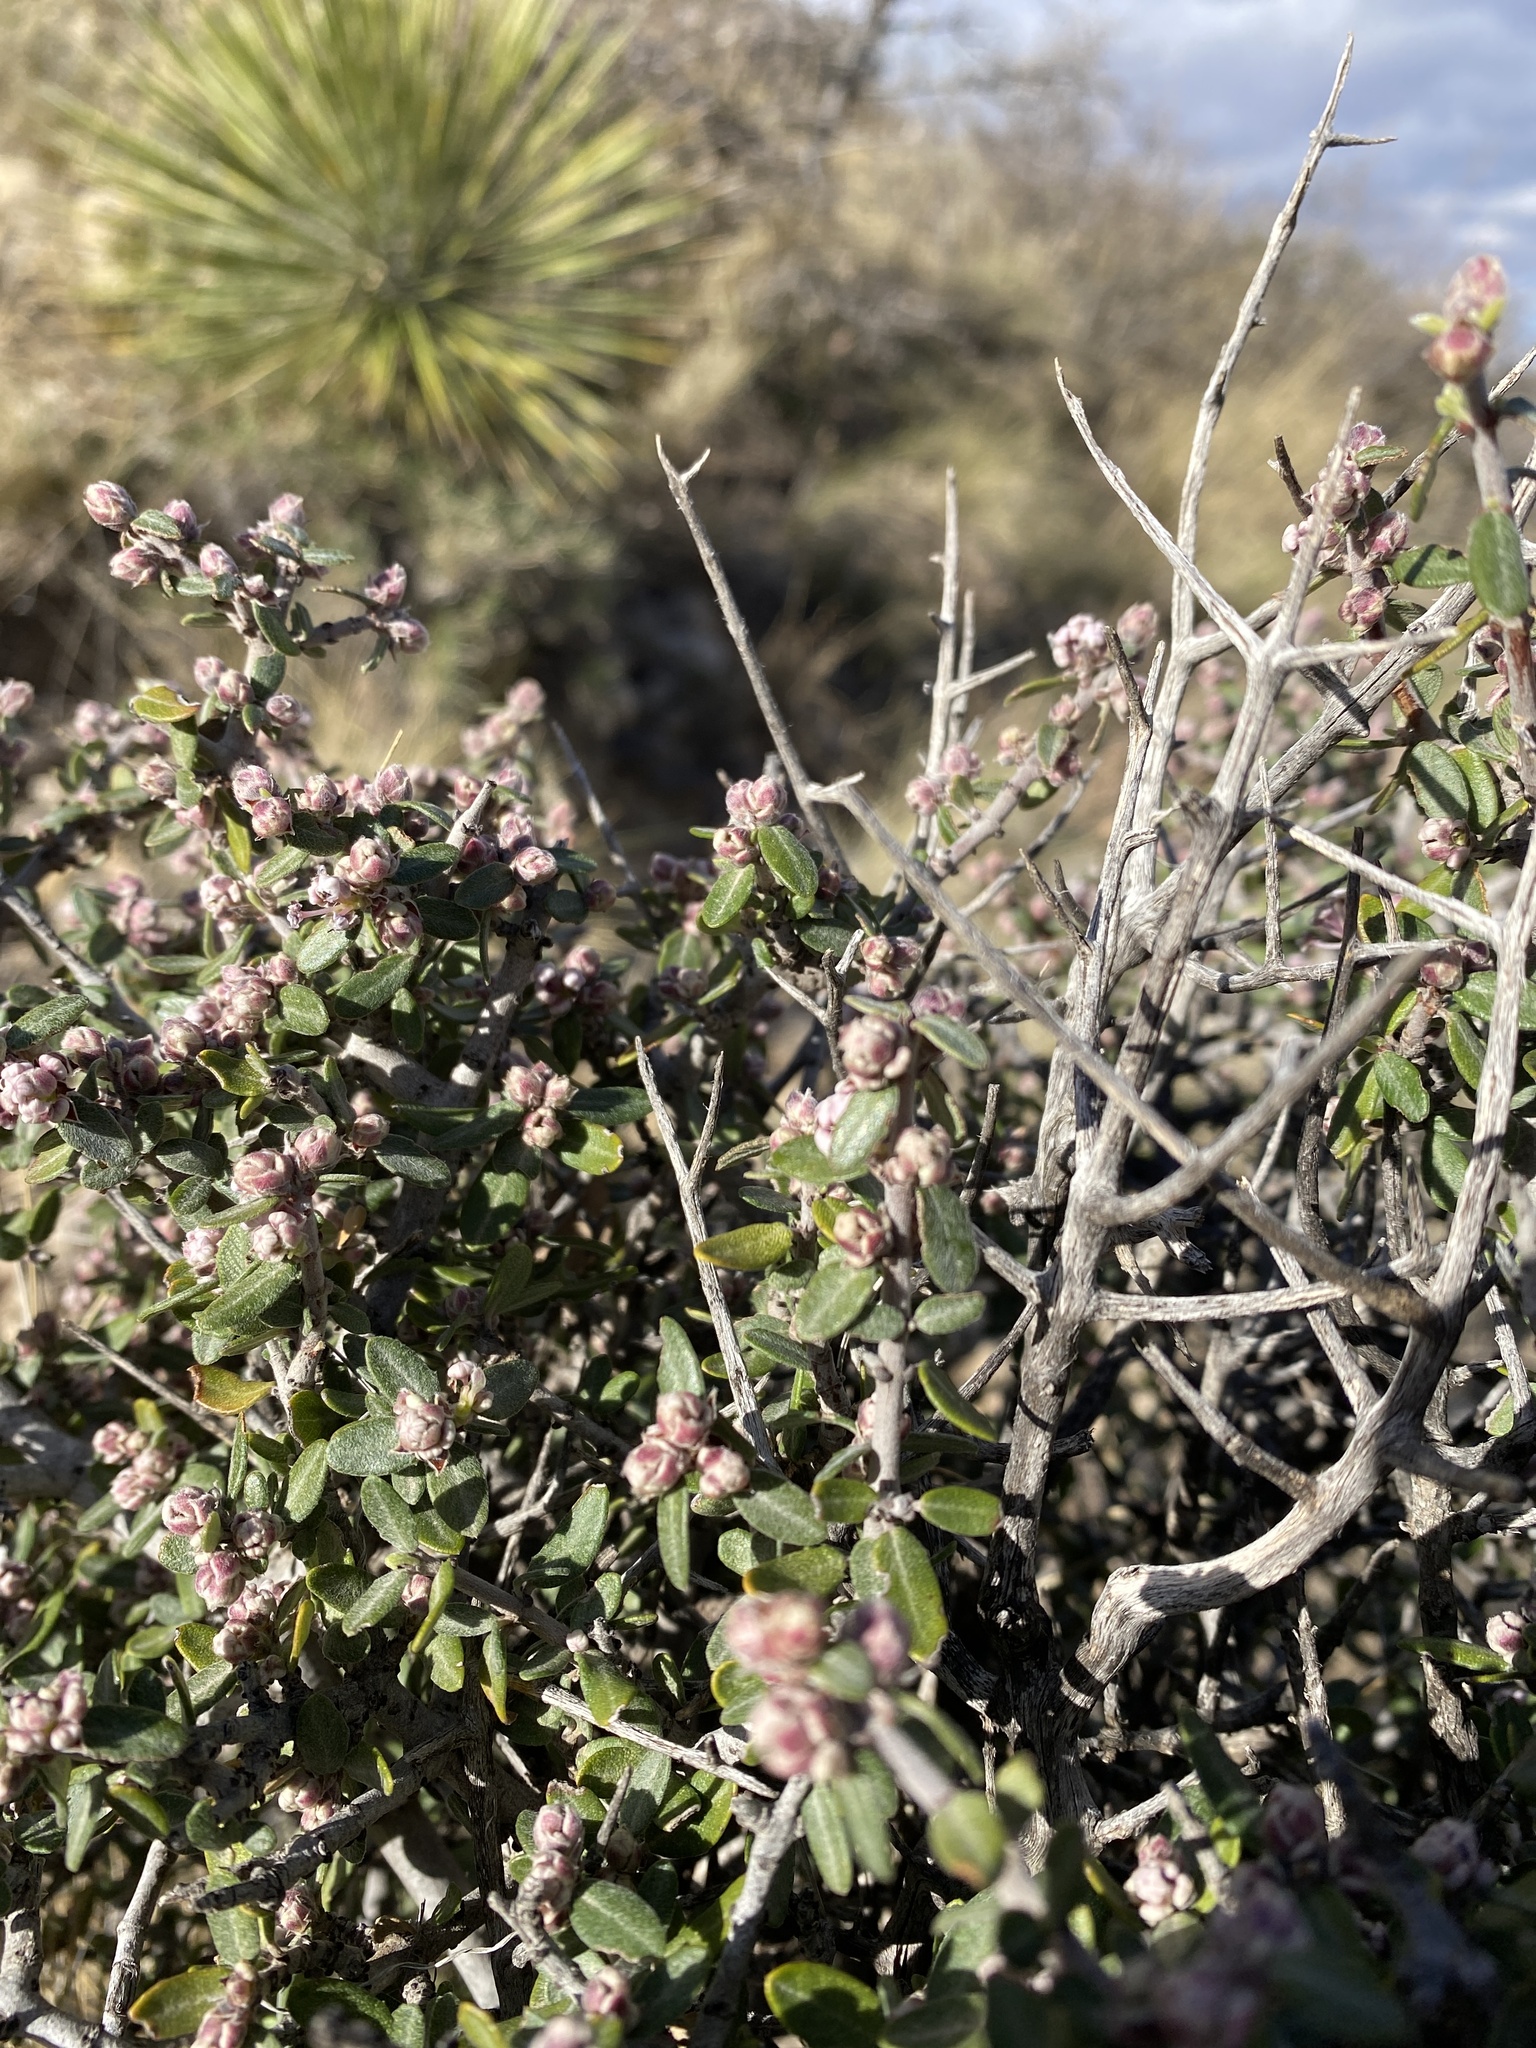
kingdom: Plantae
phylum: Tracheophyta
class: Magnoliopsida
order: Rosales
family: Rhamnaceae
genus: Ceanothus
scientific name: Ceanothus pauciflorus
